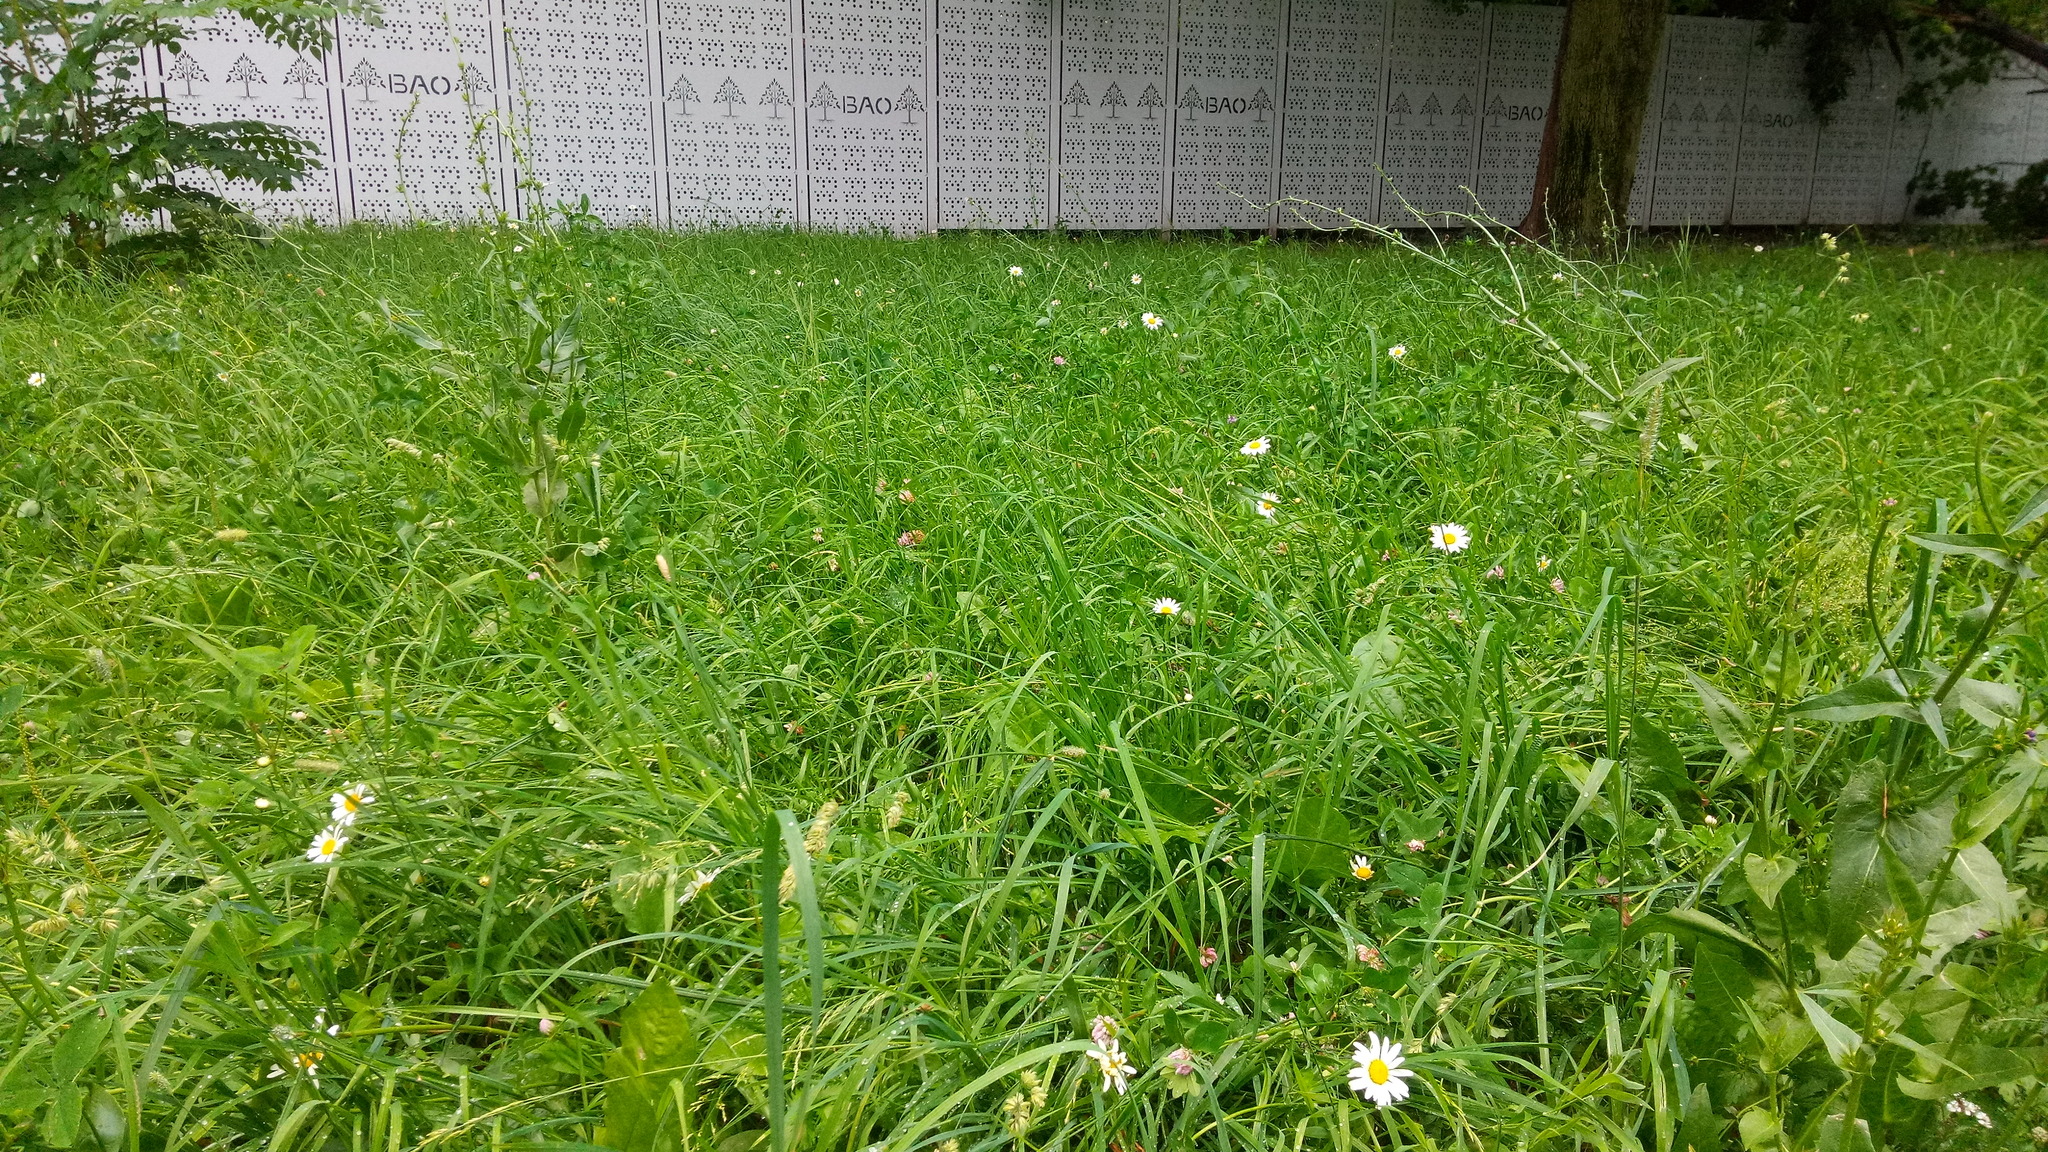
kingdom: Plantae
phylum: Tracheophyta
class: Magnoliopsida
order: Asterales
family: Asteraceae
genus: Leucanthemum
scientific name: Leucanthemum vulgare
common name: Oxeye daisy
